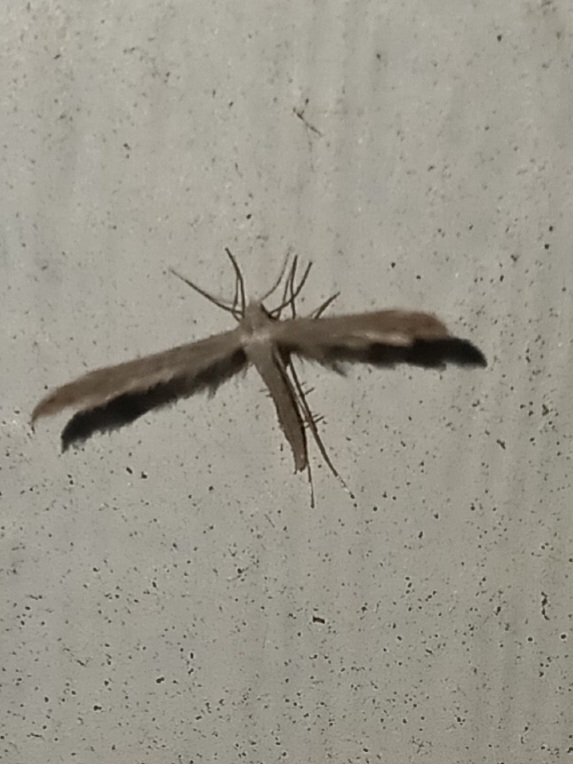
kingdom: Animalia
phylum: Arthropoda
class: Insecta
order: Lepidoptera
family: Pterophoridae
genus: Lioptilodes
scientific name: Lioptilodes albistriolatus
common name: Moth
